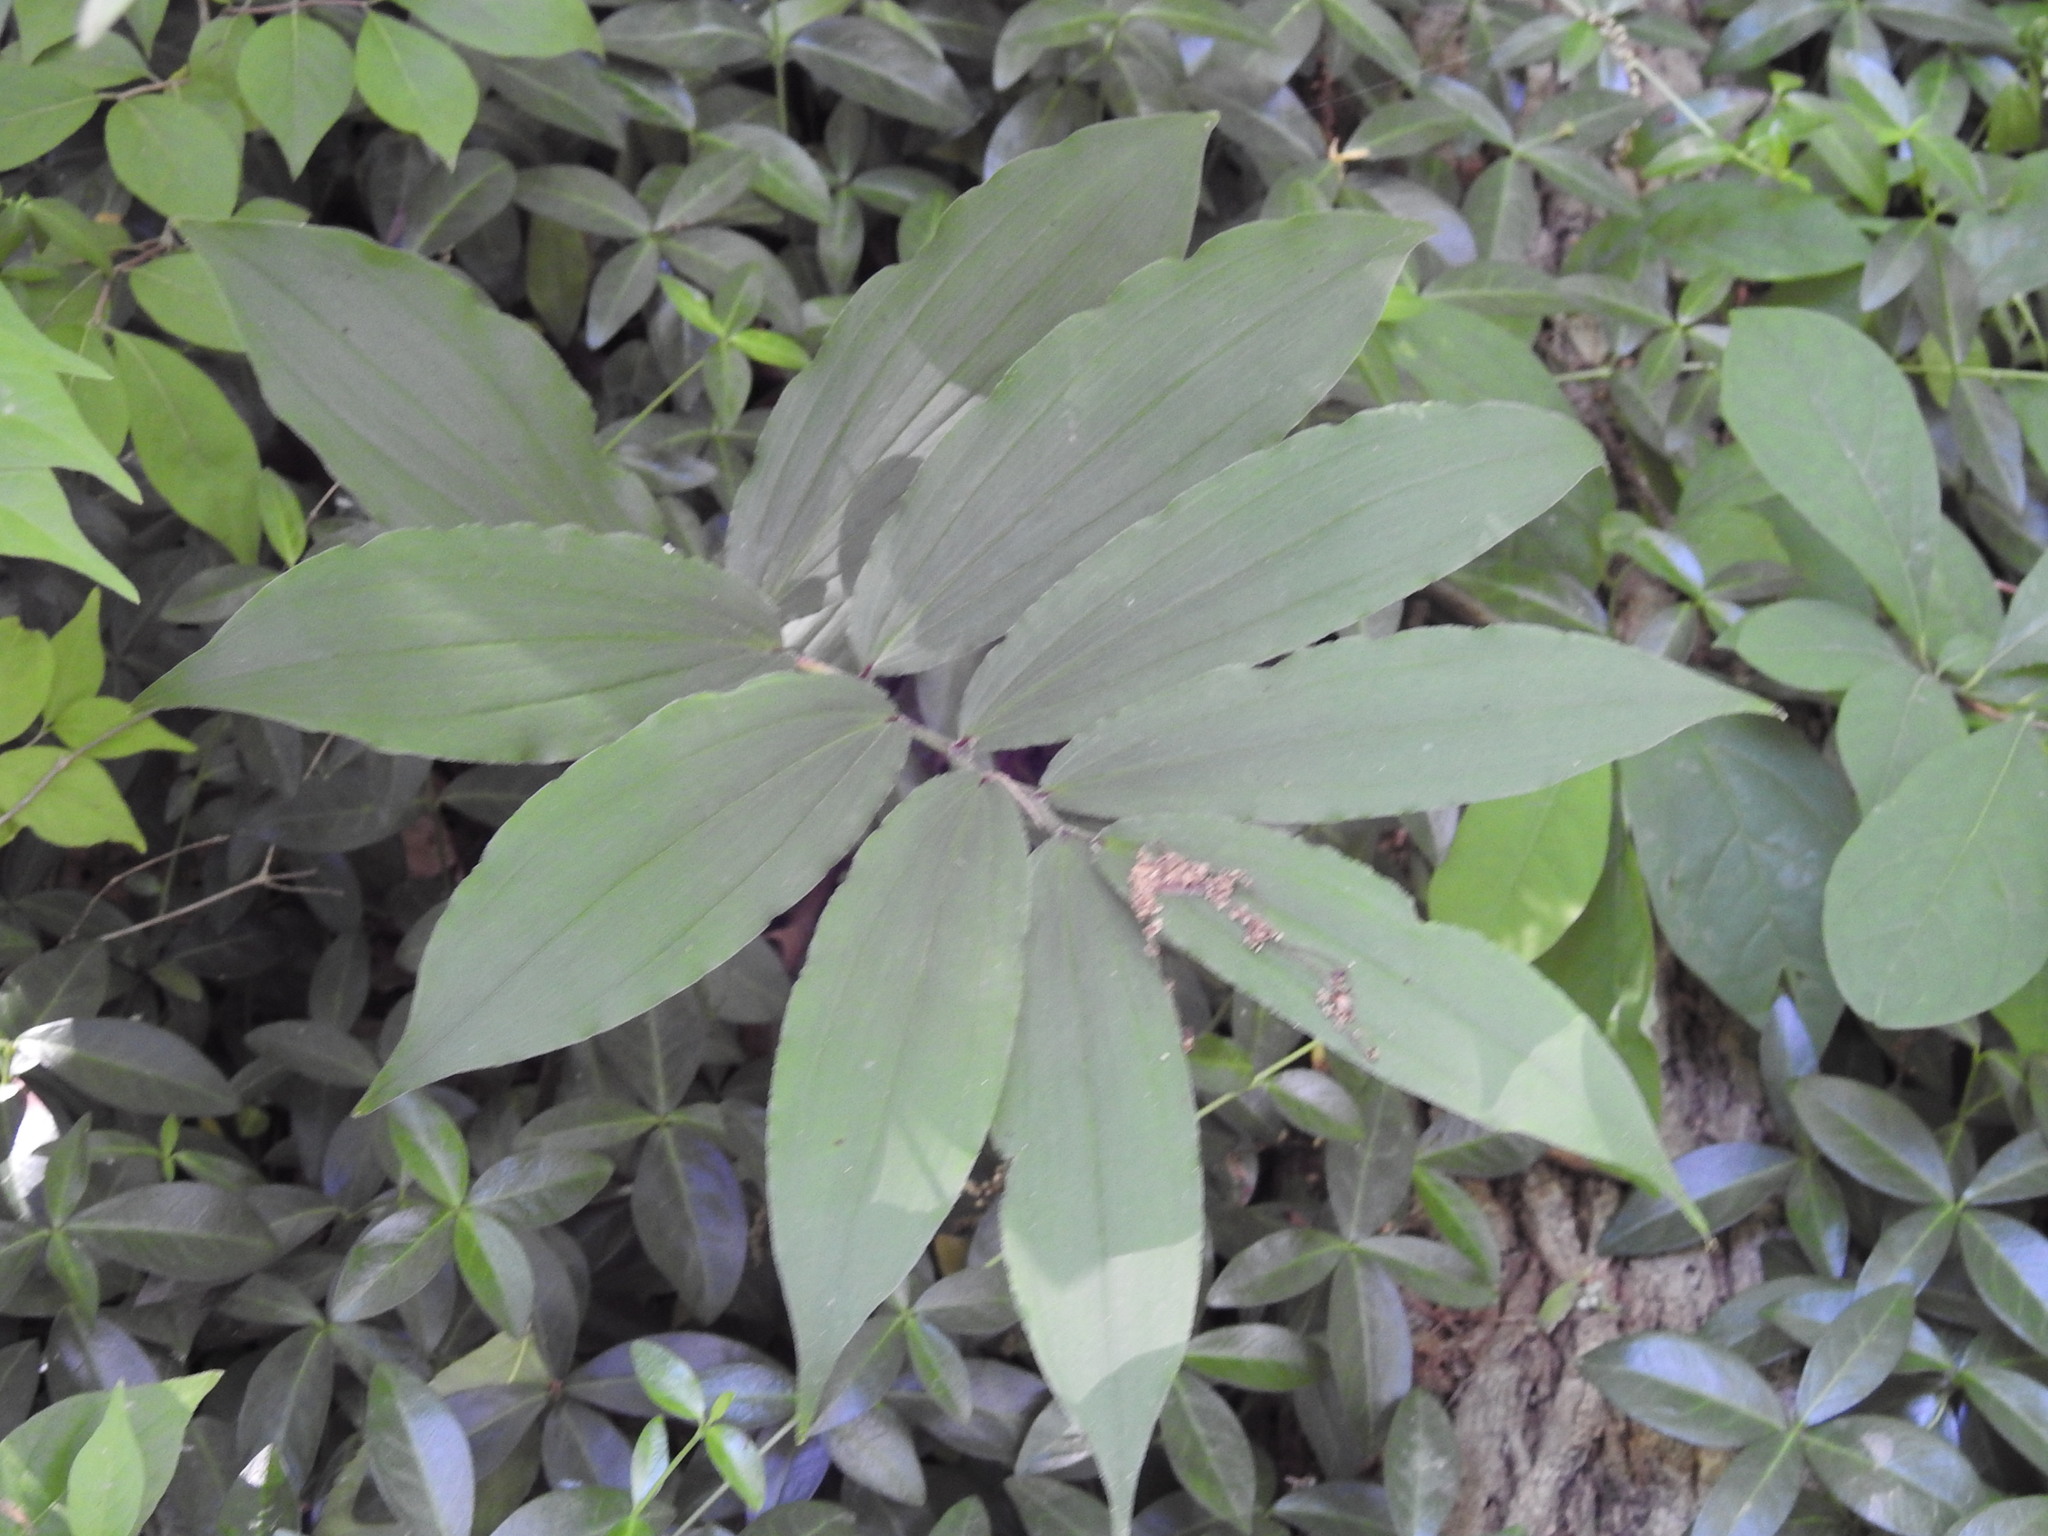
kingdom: Plantae
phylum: Tracheophyta
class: Liliopsida
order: Asparagales
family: Asparagaceae
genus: Maianthemum
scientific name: Maianthemum racemosum
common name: False spikenard
